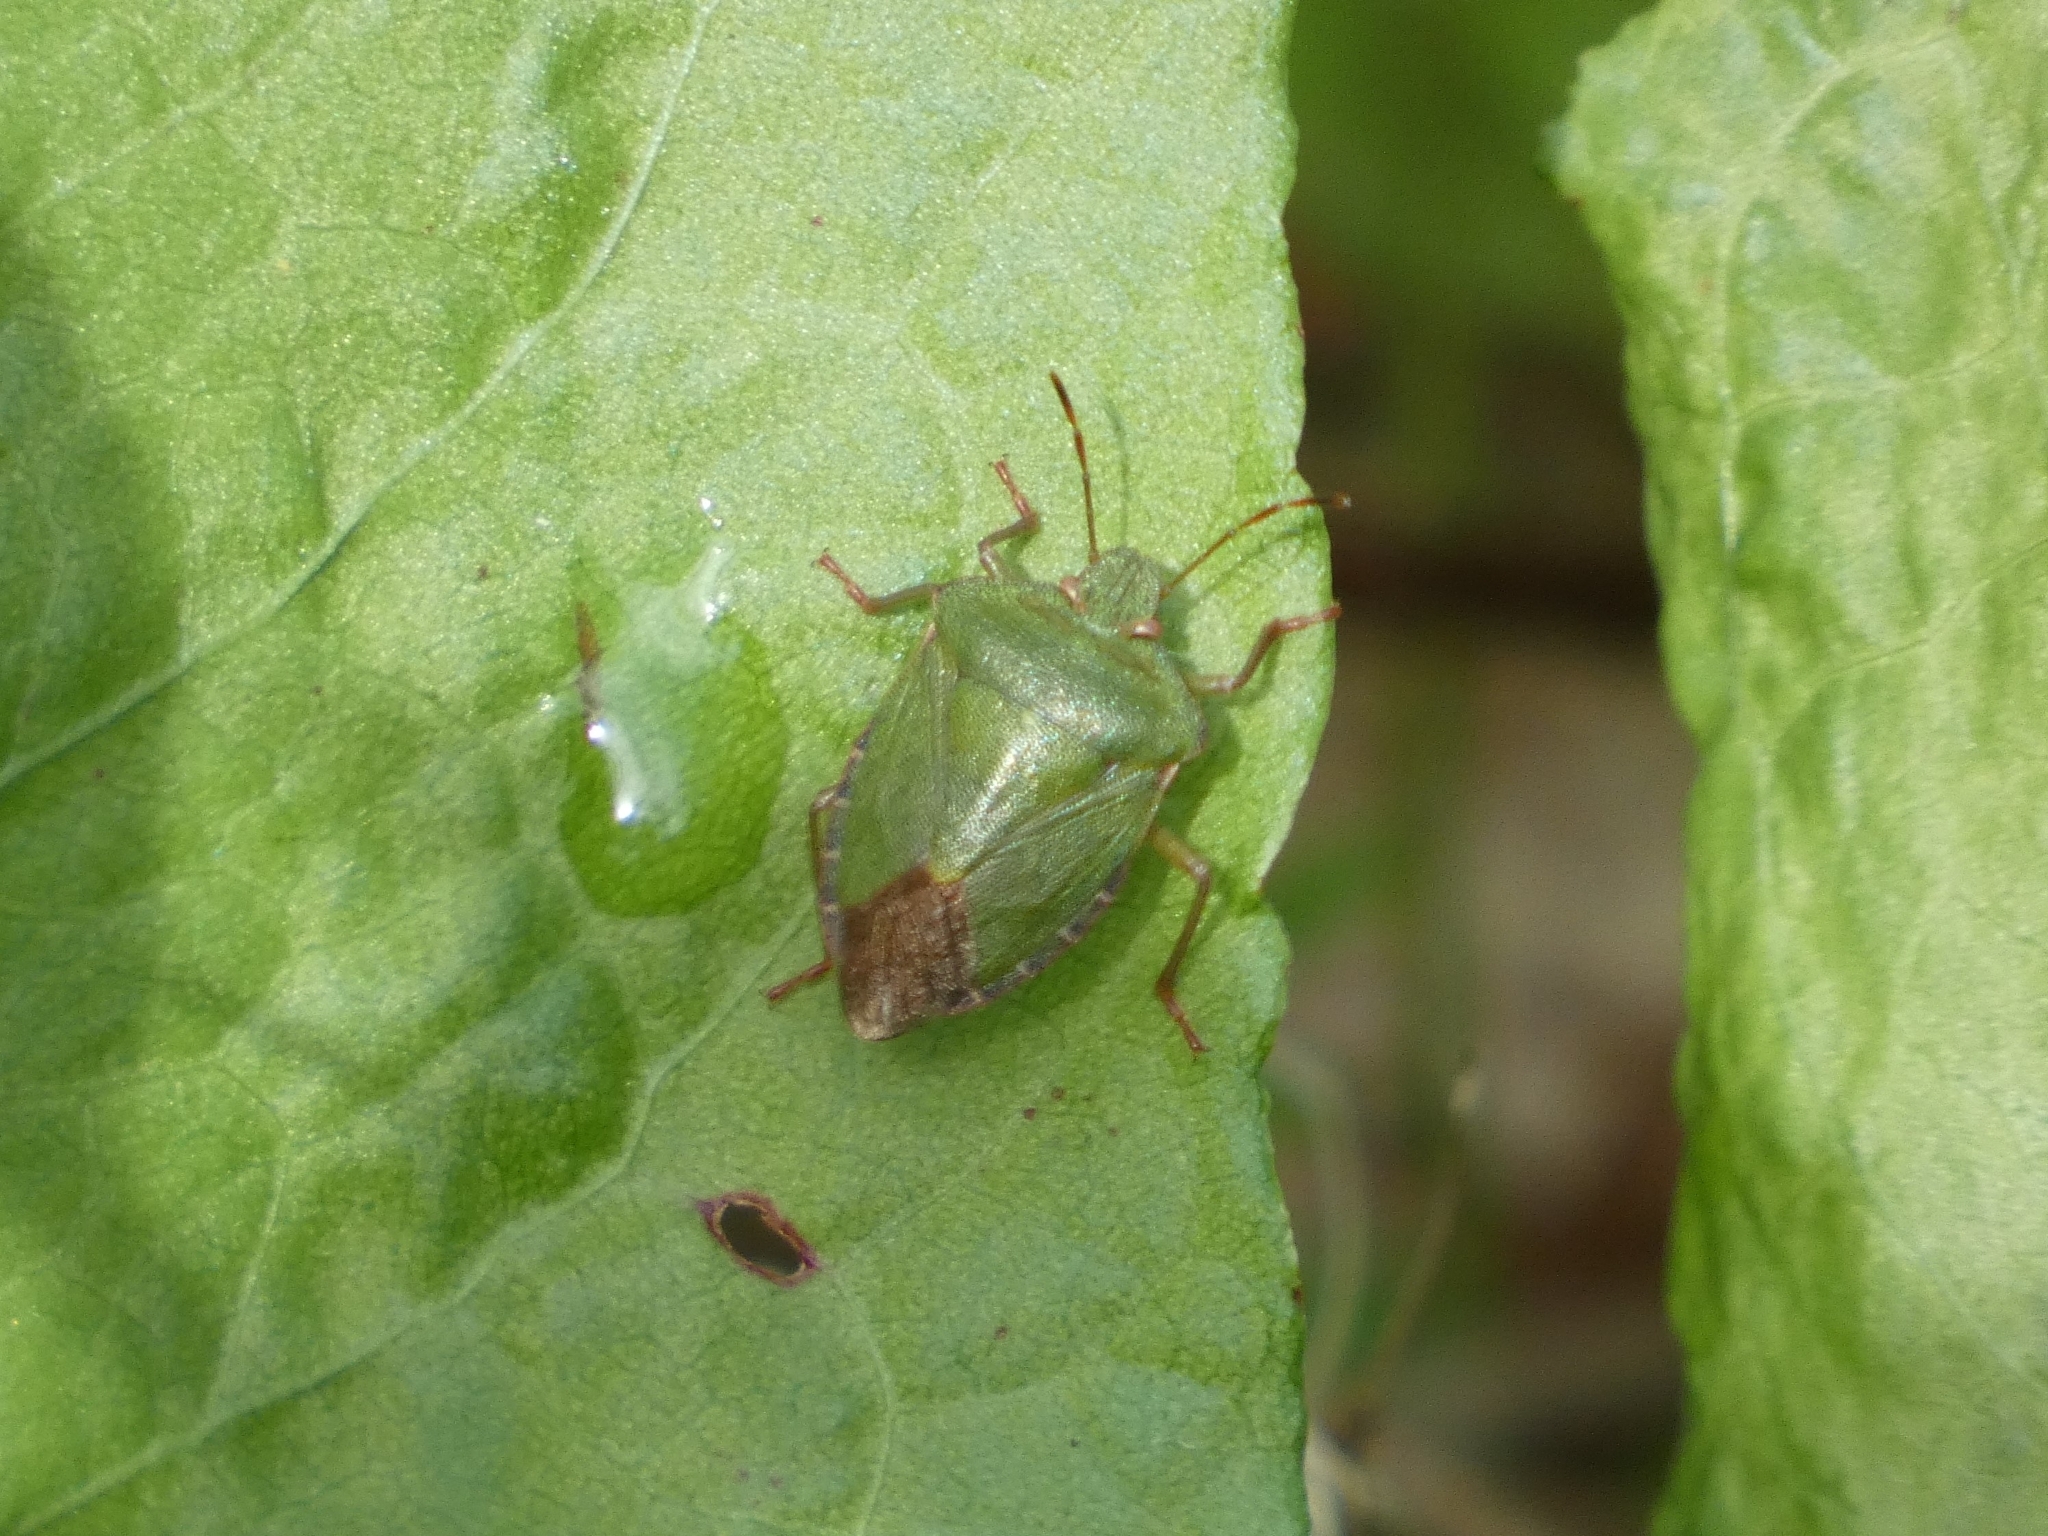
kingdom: Animalia
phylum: Arthropoda
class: Insecta
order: Hemiptera
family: Pentatomidae
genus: Palomena
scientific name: Palomena prasina
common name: Green shieldbug
